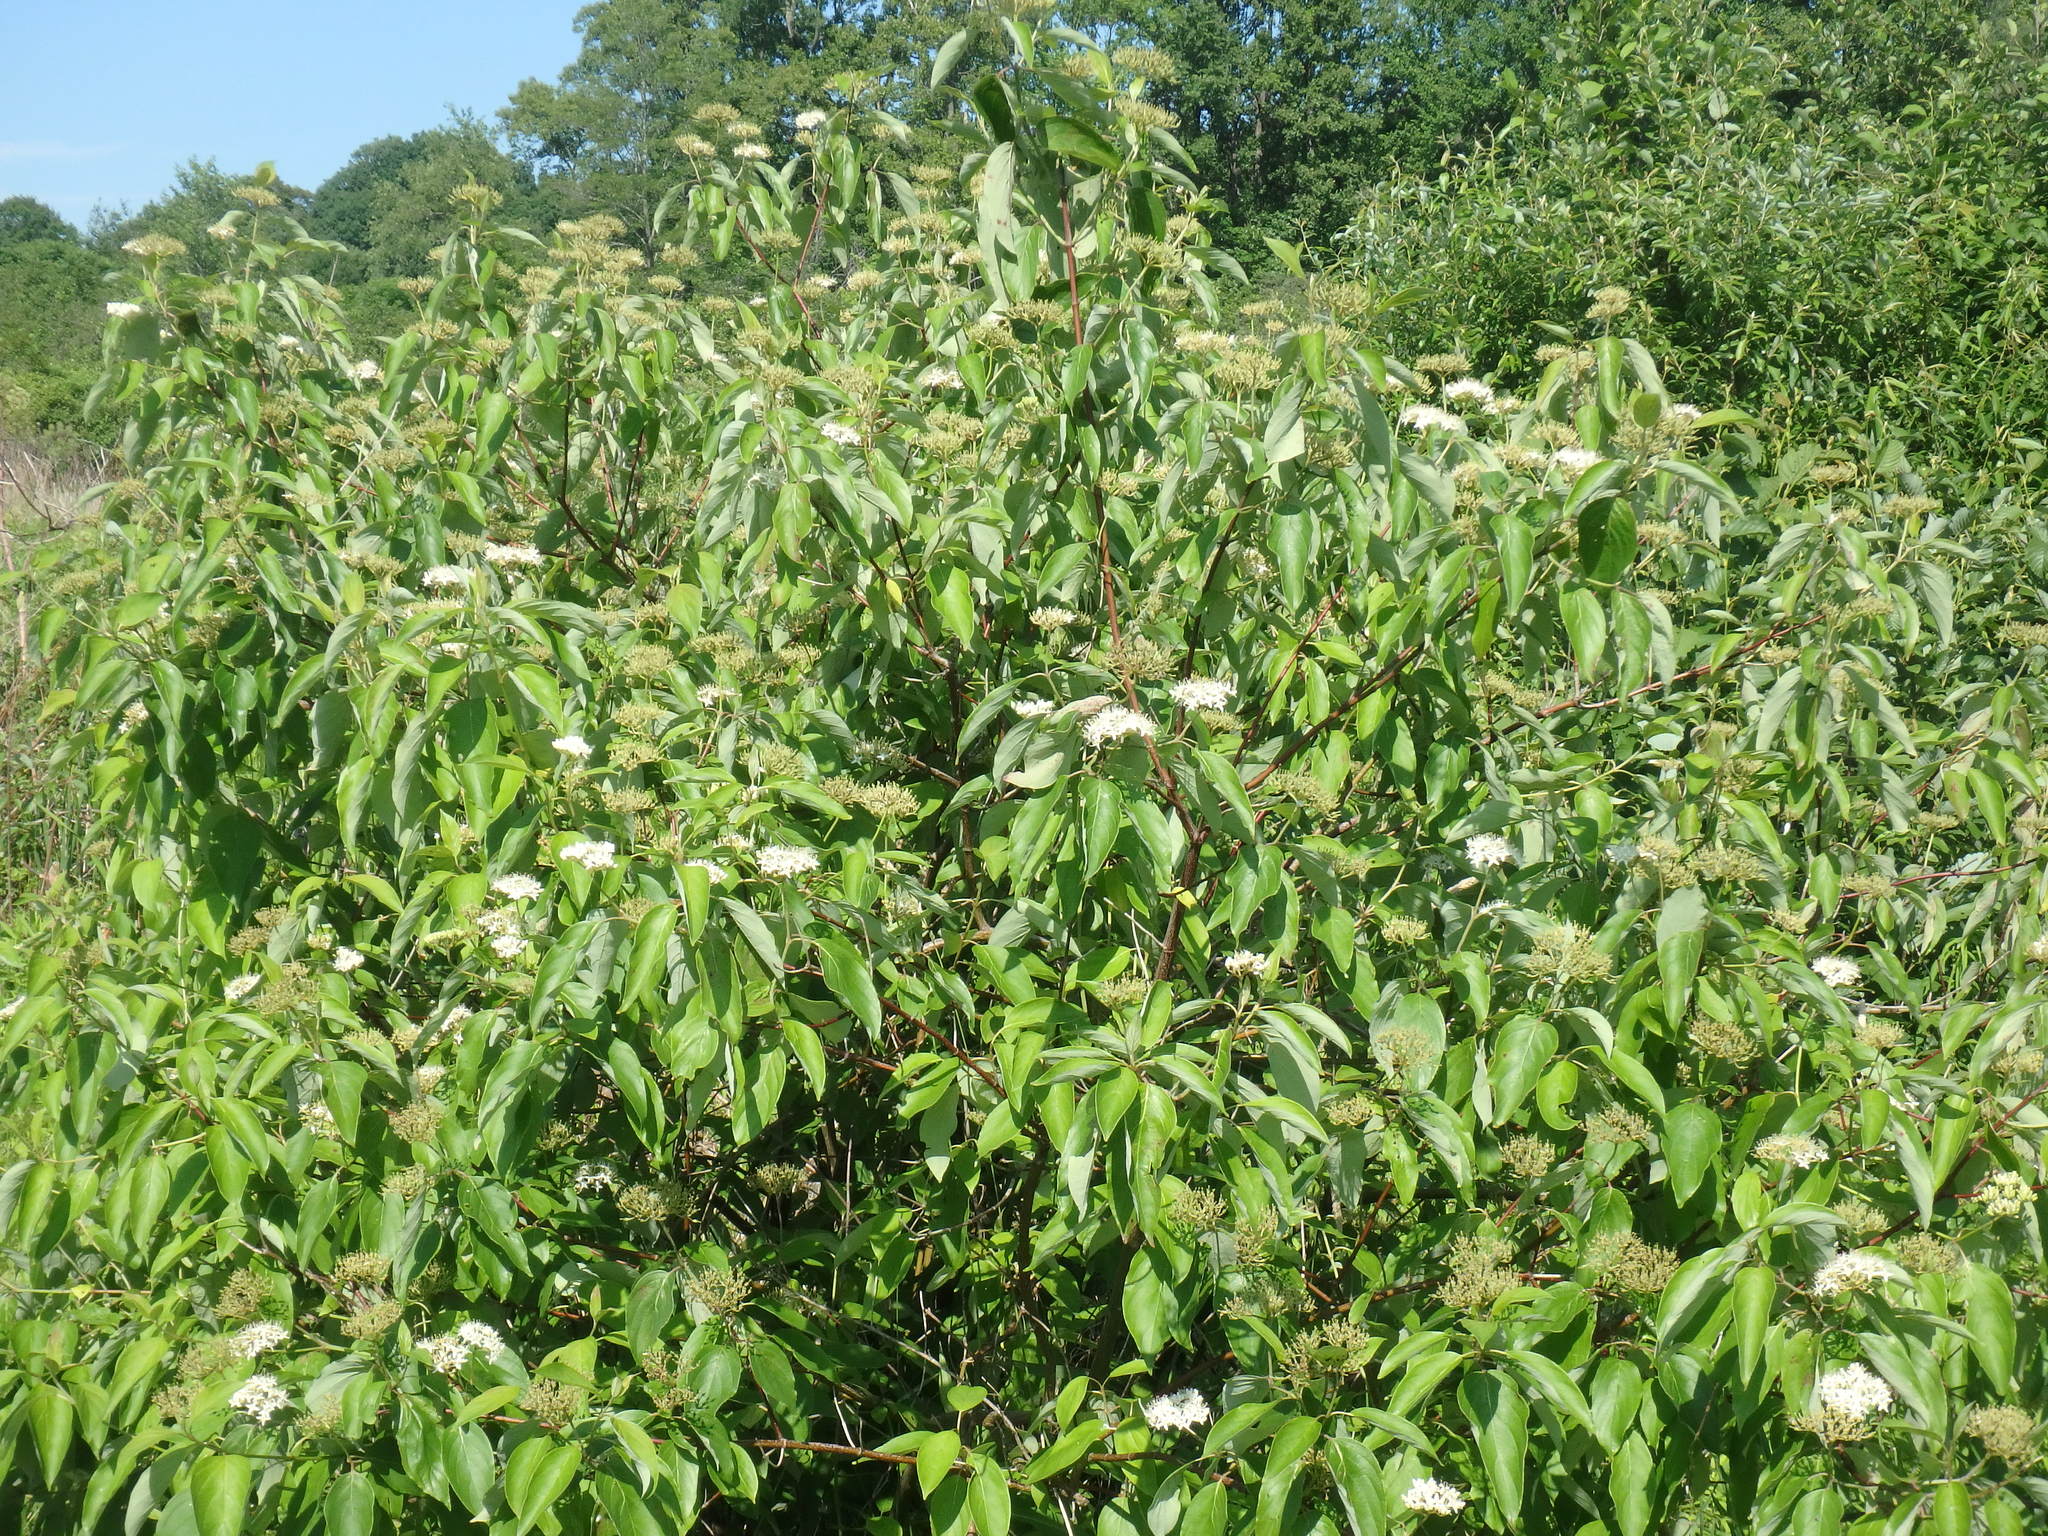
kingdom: Plantae
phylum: Tracheophyta
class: Magnoliopsida
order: Cornales
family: Cornaceae
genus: Cornus
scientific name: Cornus sericea
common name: Red-osier dogwood
